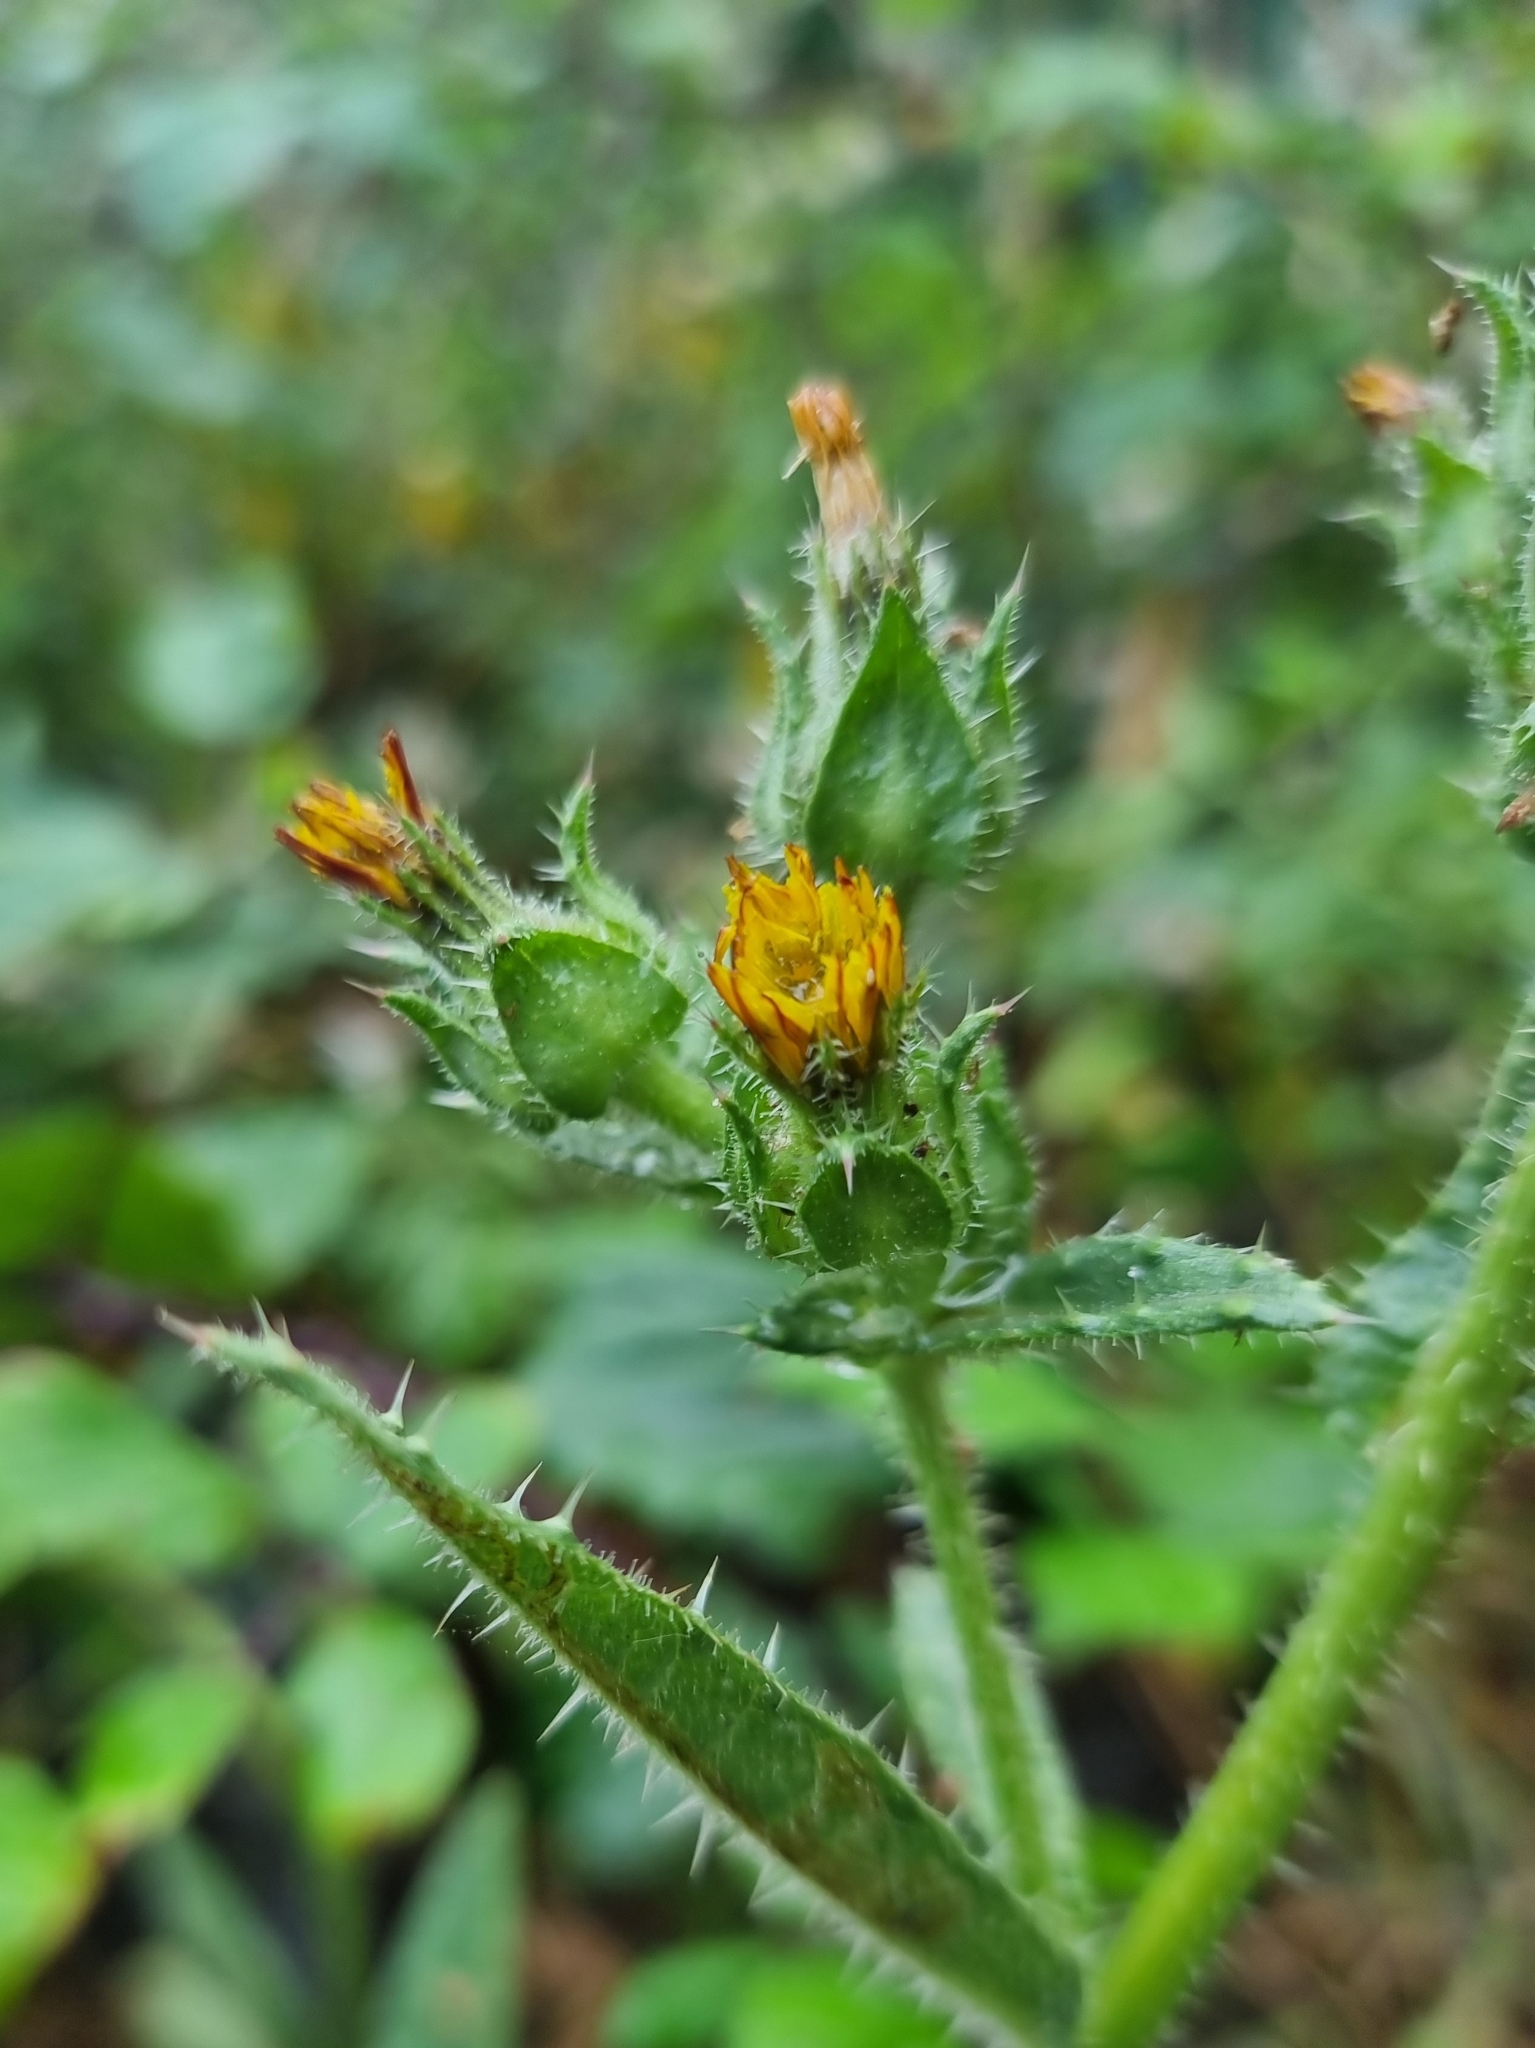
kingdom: Plantae
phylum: Tracheophyta
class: Magnoliopsida
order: Asterales
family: Asteraceae
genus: Helminthotheca
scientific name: Helminthotheca echioides
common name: Ox-tongue
